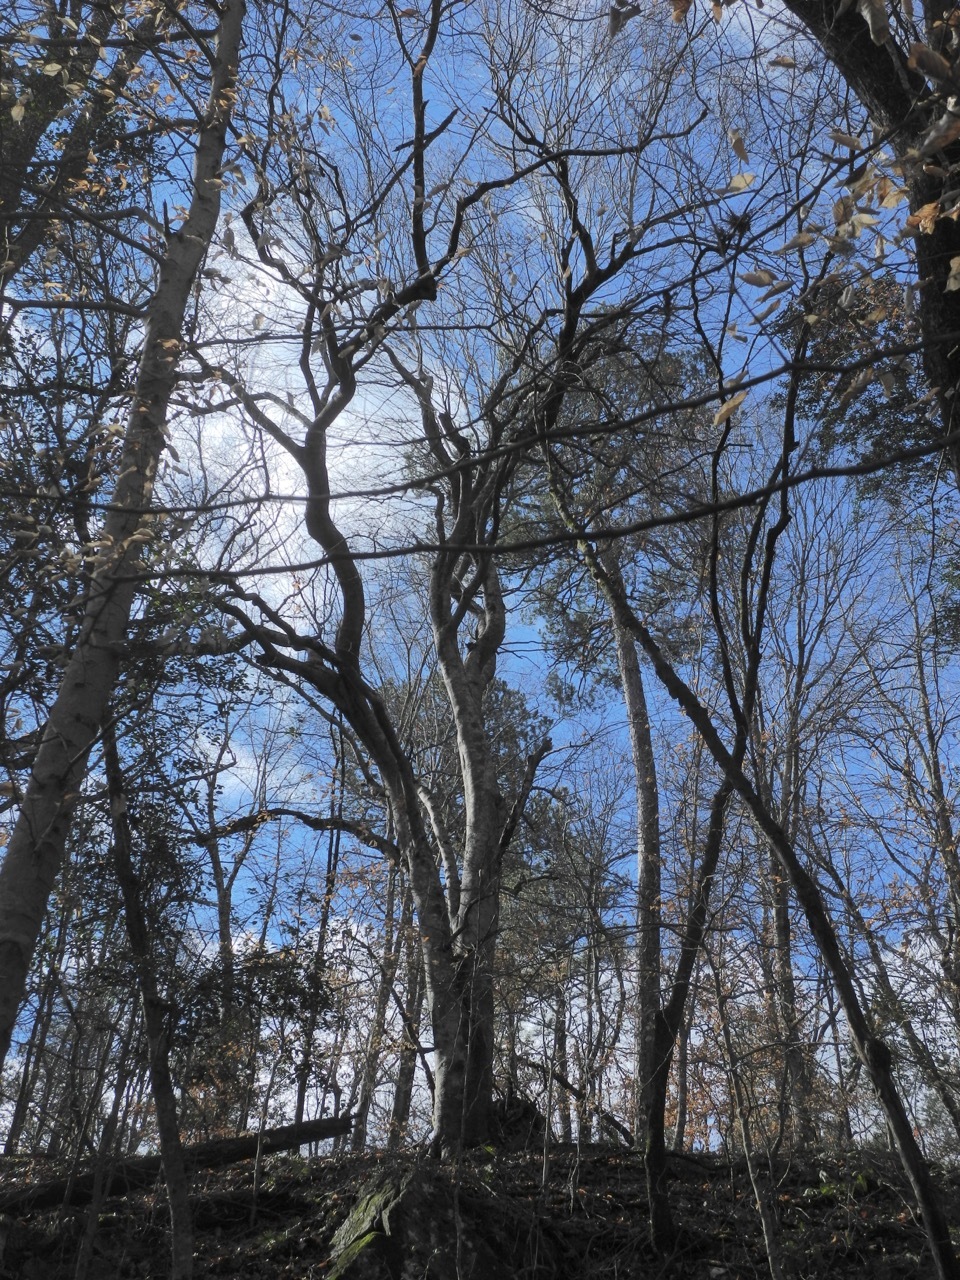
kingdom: Plantae
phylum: Tracheophyta
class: Magnoliopsida
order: Fagales
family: Fagaceae
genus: Fagus
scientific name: Fagus grandifolia
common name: American beech
